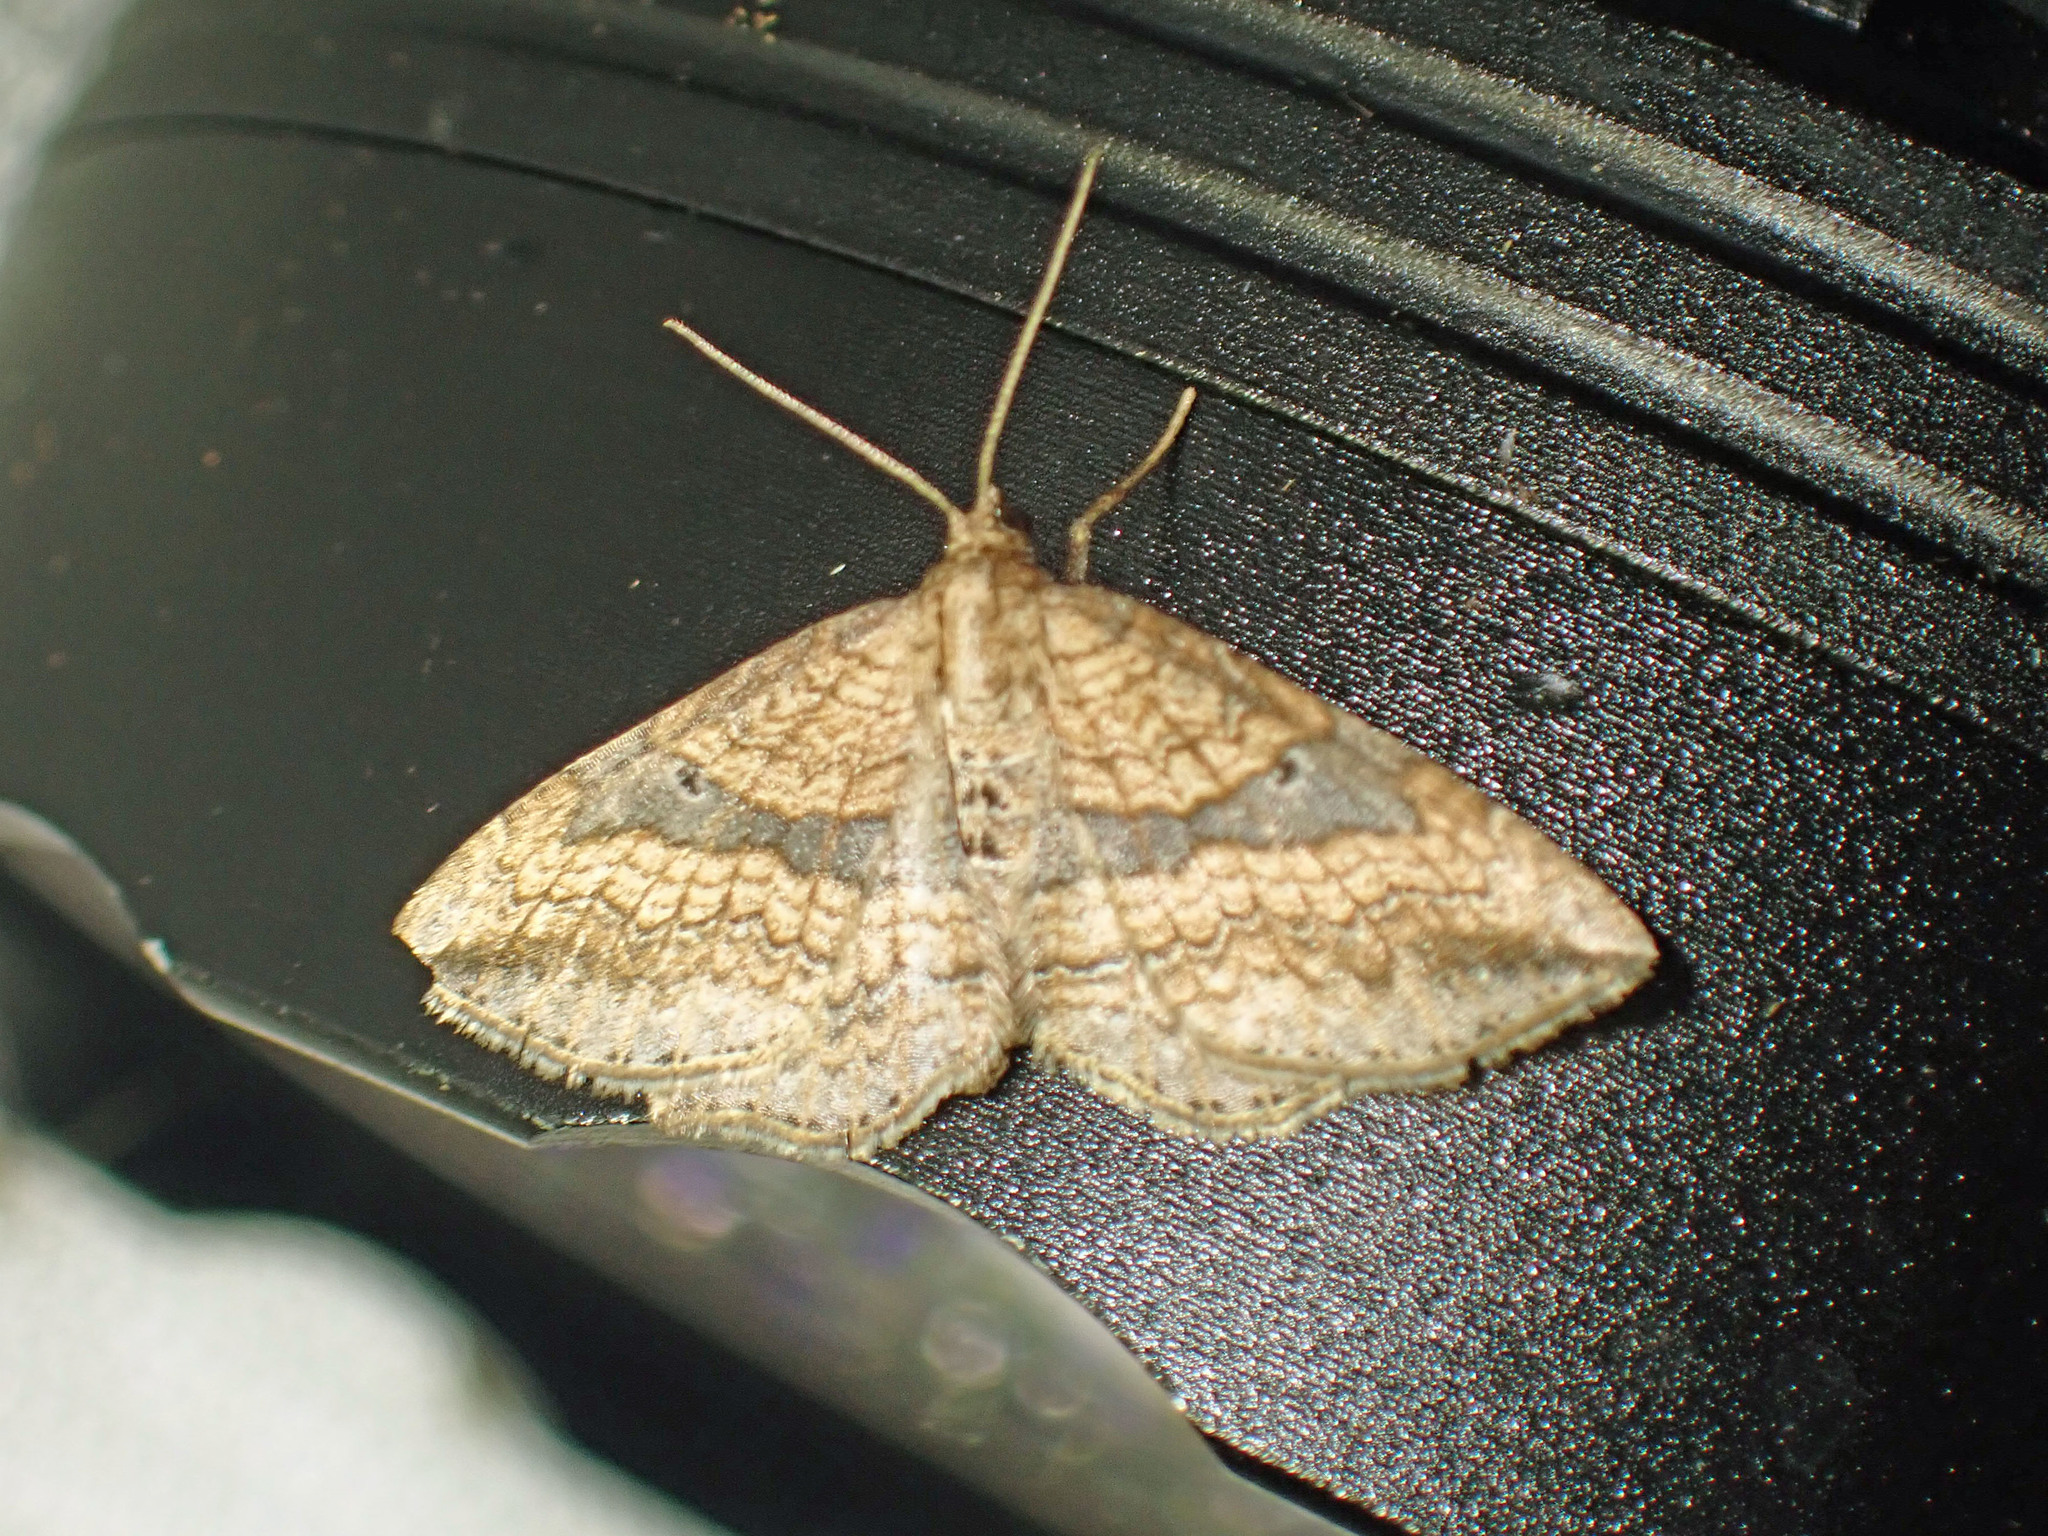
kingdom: Animalia
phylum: Arthropoda
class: Insecta
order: Lepidoptera
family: Geometridae
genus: Orthonama
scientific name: Orthonama evansi
